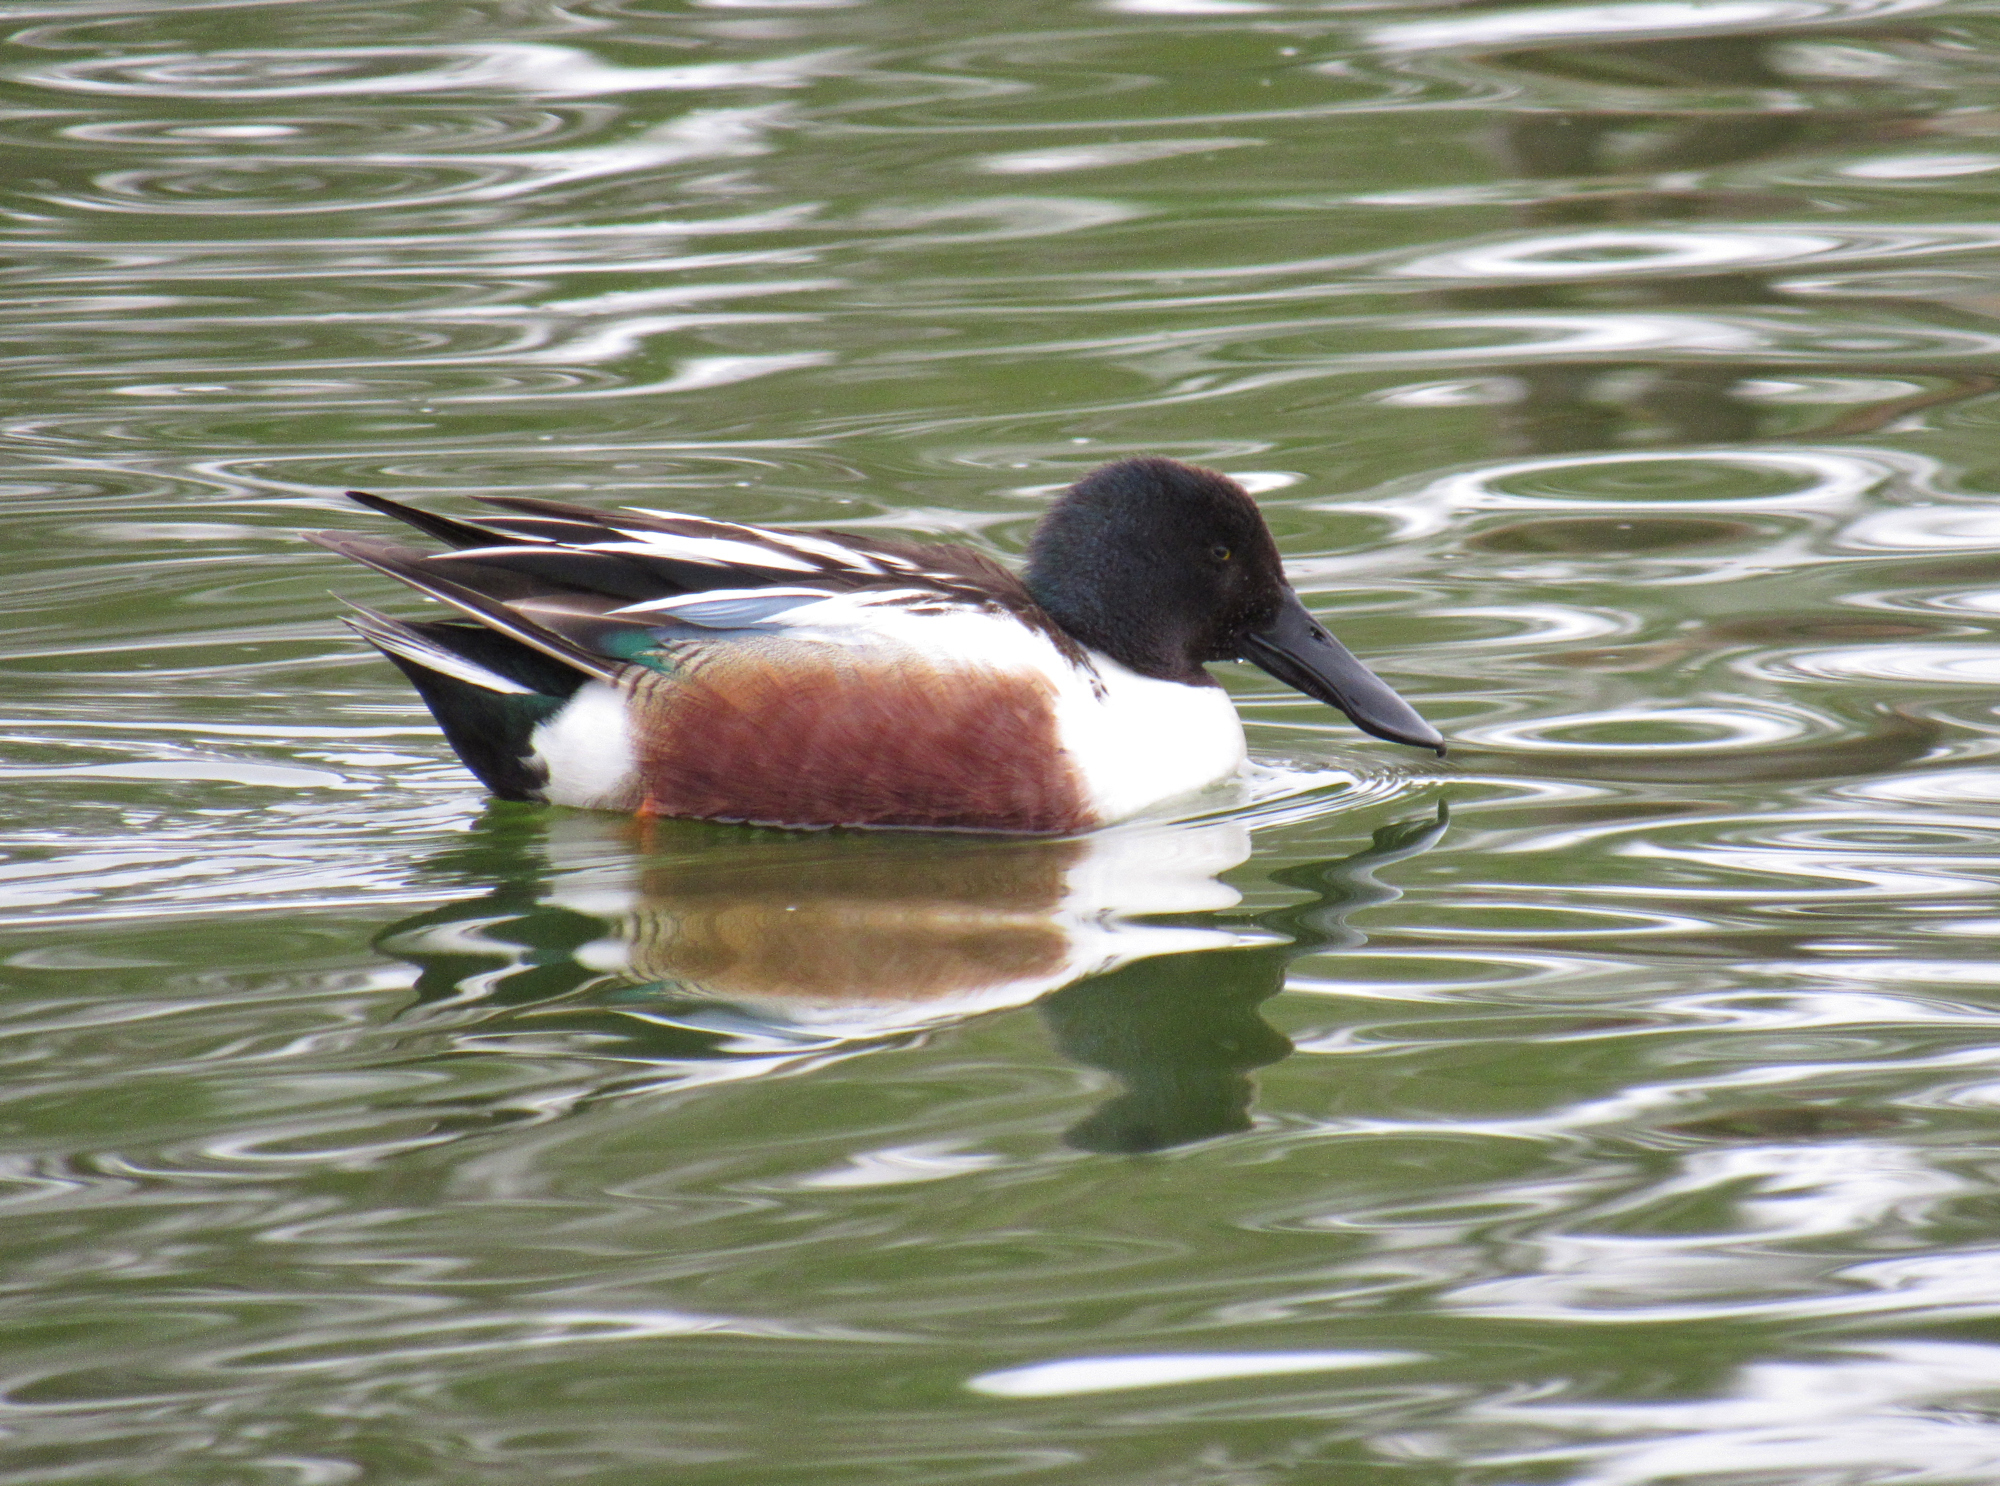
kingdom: Animalia
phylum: Chordata
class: Aves
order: Anseriformes
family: Anatidae
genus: Spatula
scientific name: Spatula clypeata
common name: Northern shoveler
